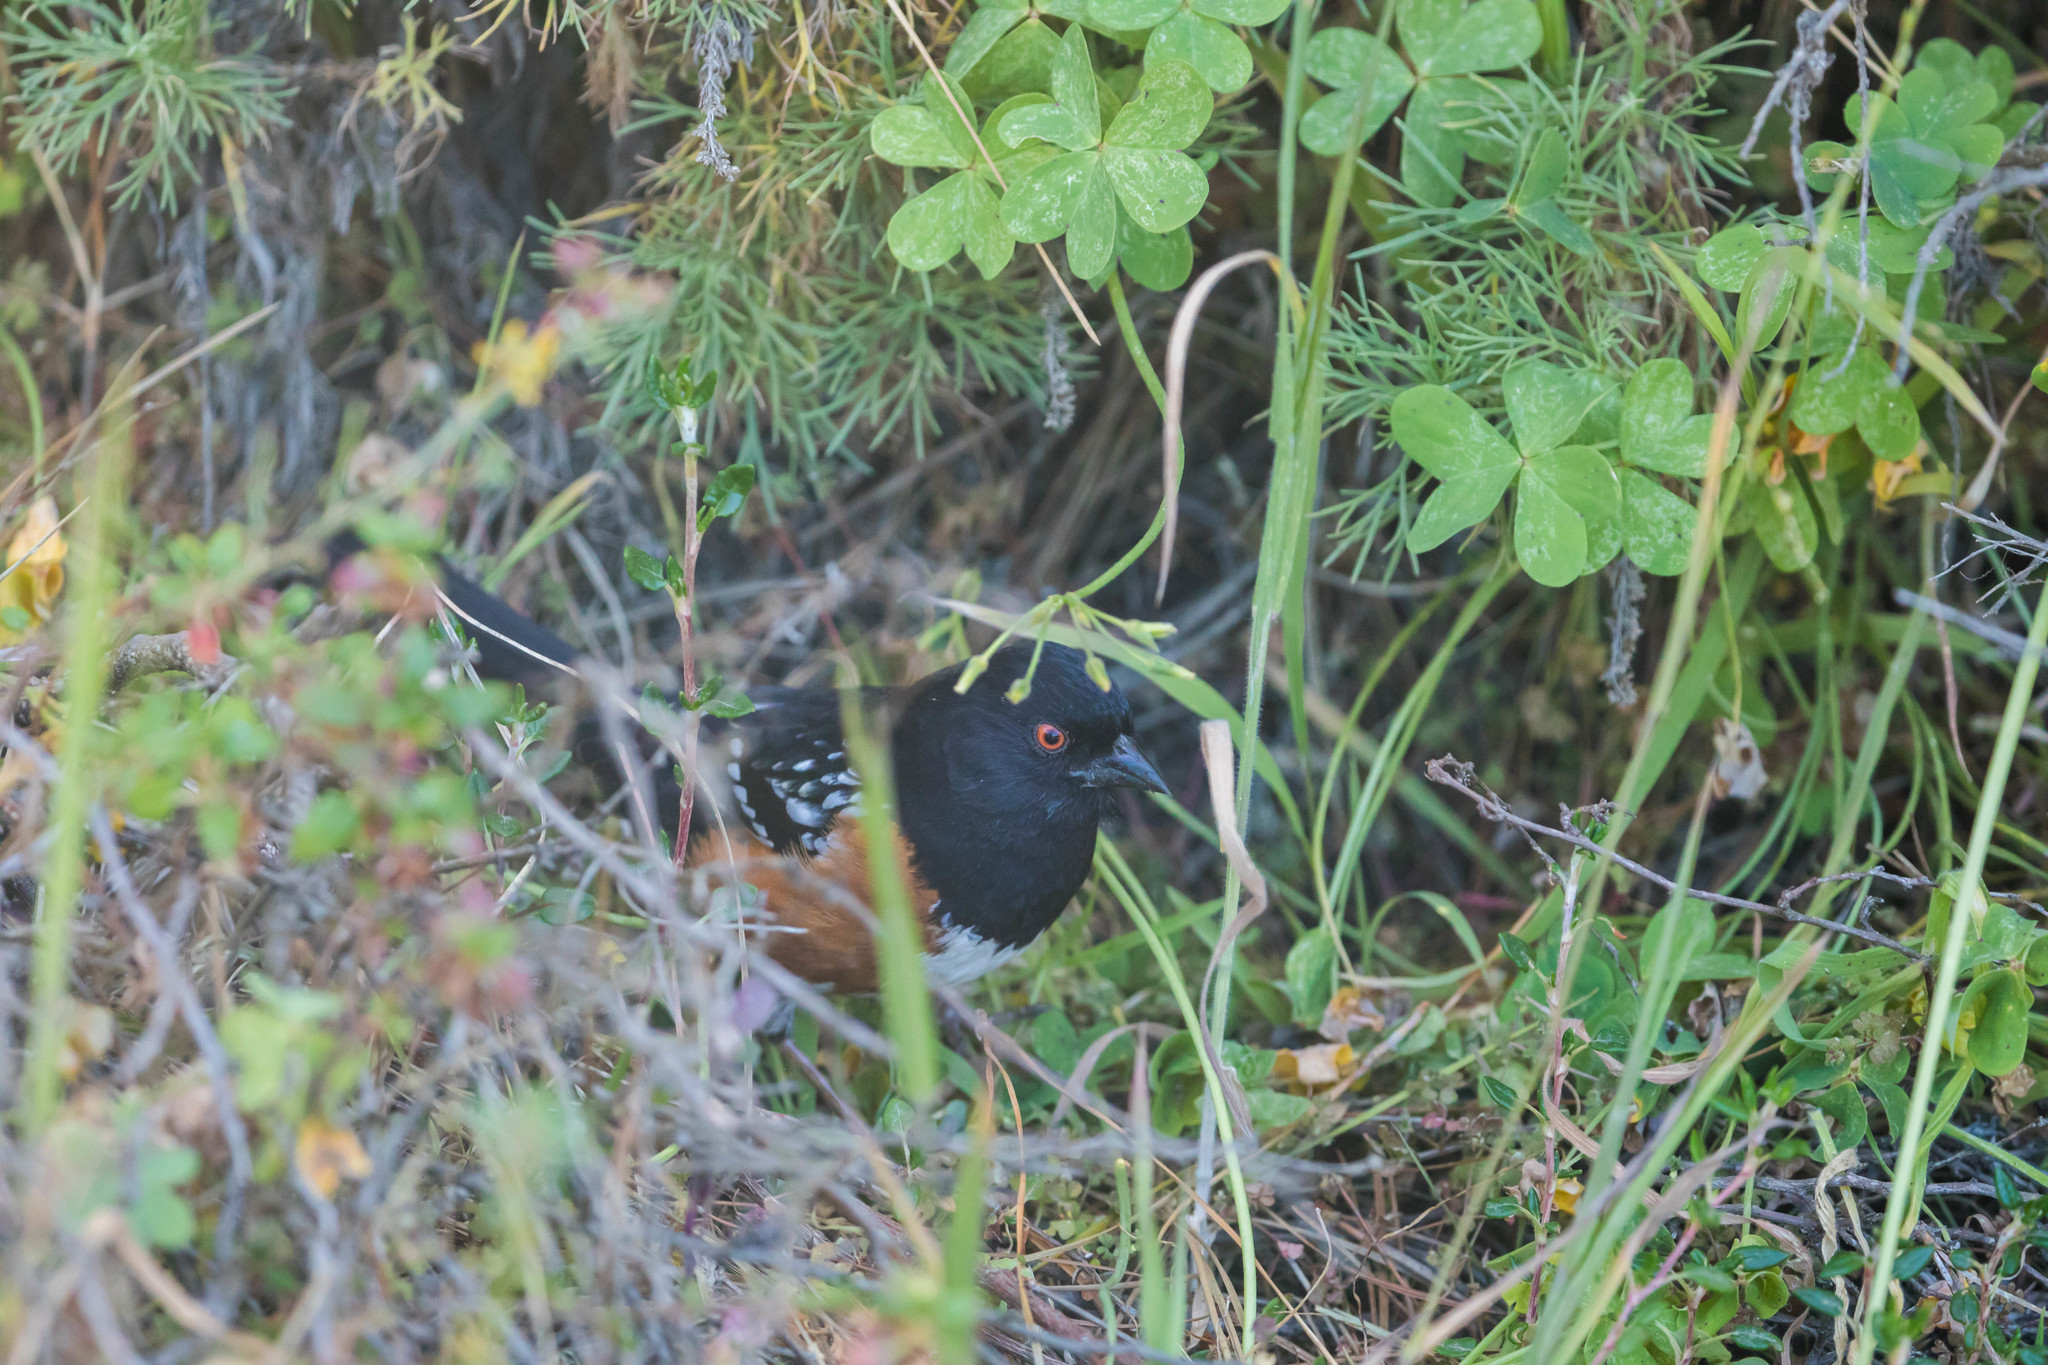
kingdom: Animalia
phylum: Chordata
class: Aves
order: Passeriformes
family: Passerellidae
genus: Pipilo
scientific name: Pipilo maculatus
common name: Spotted towhee
